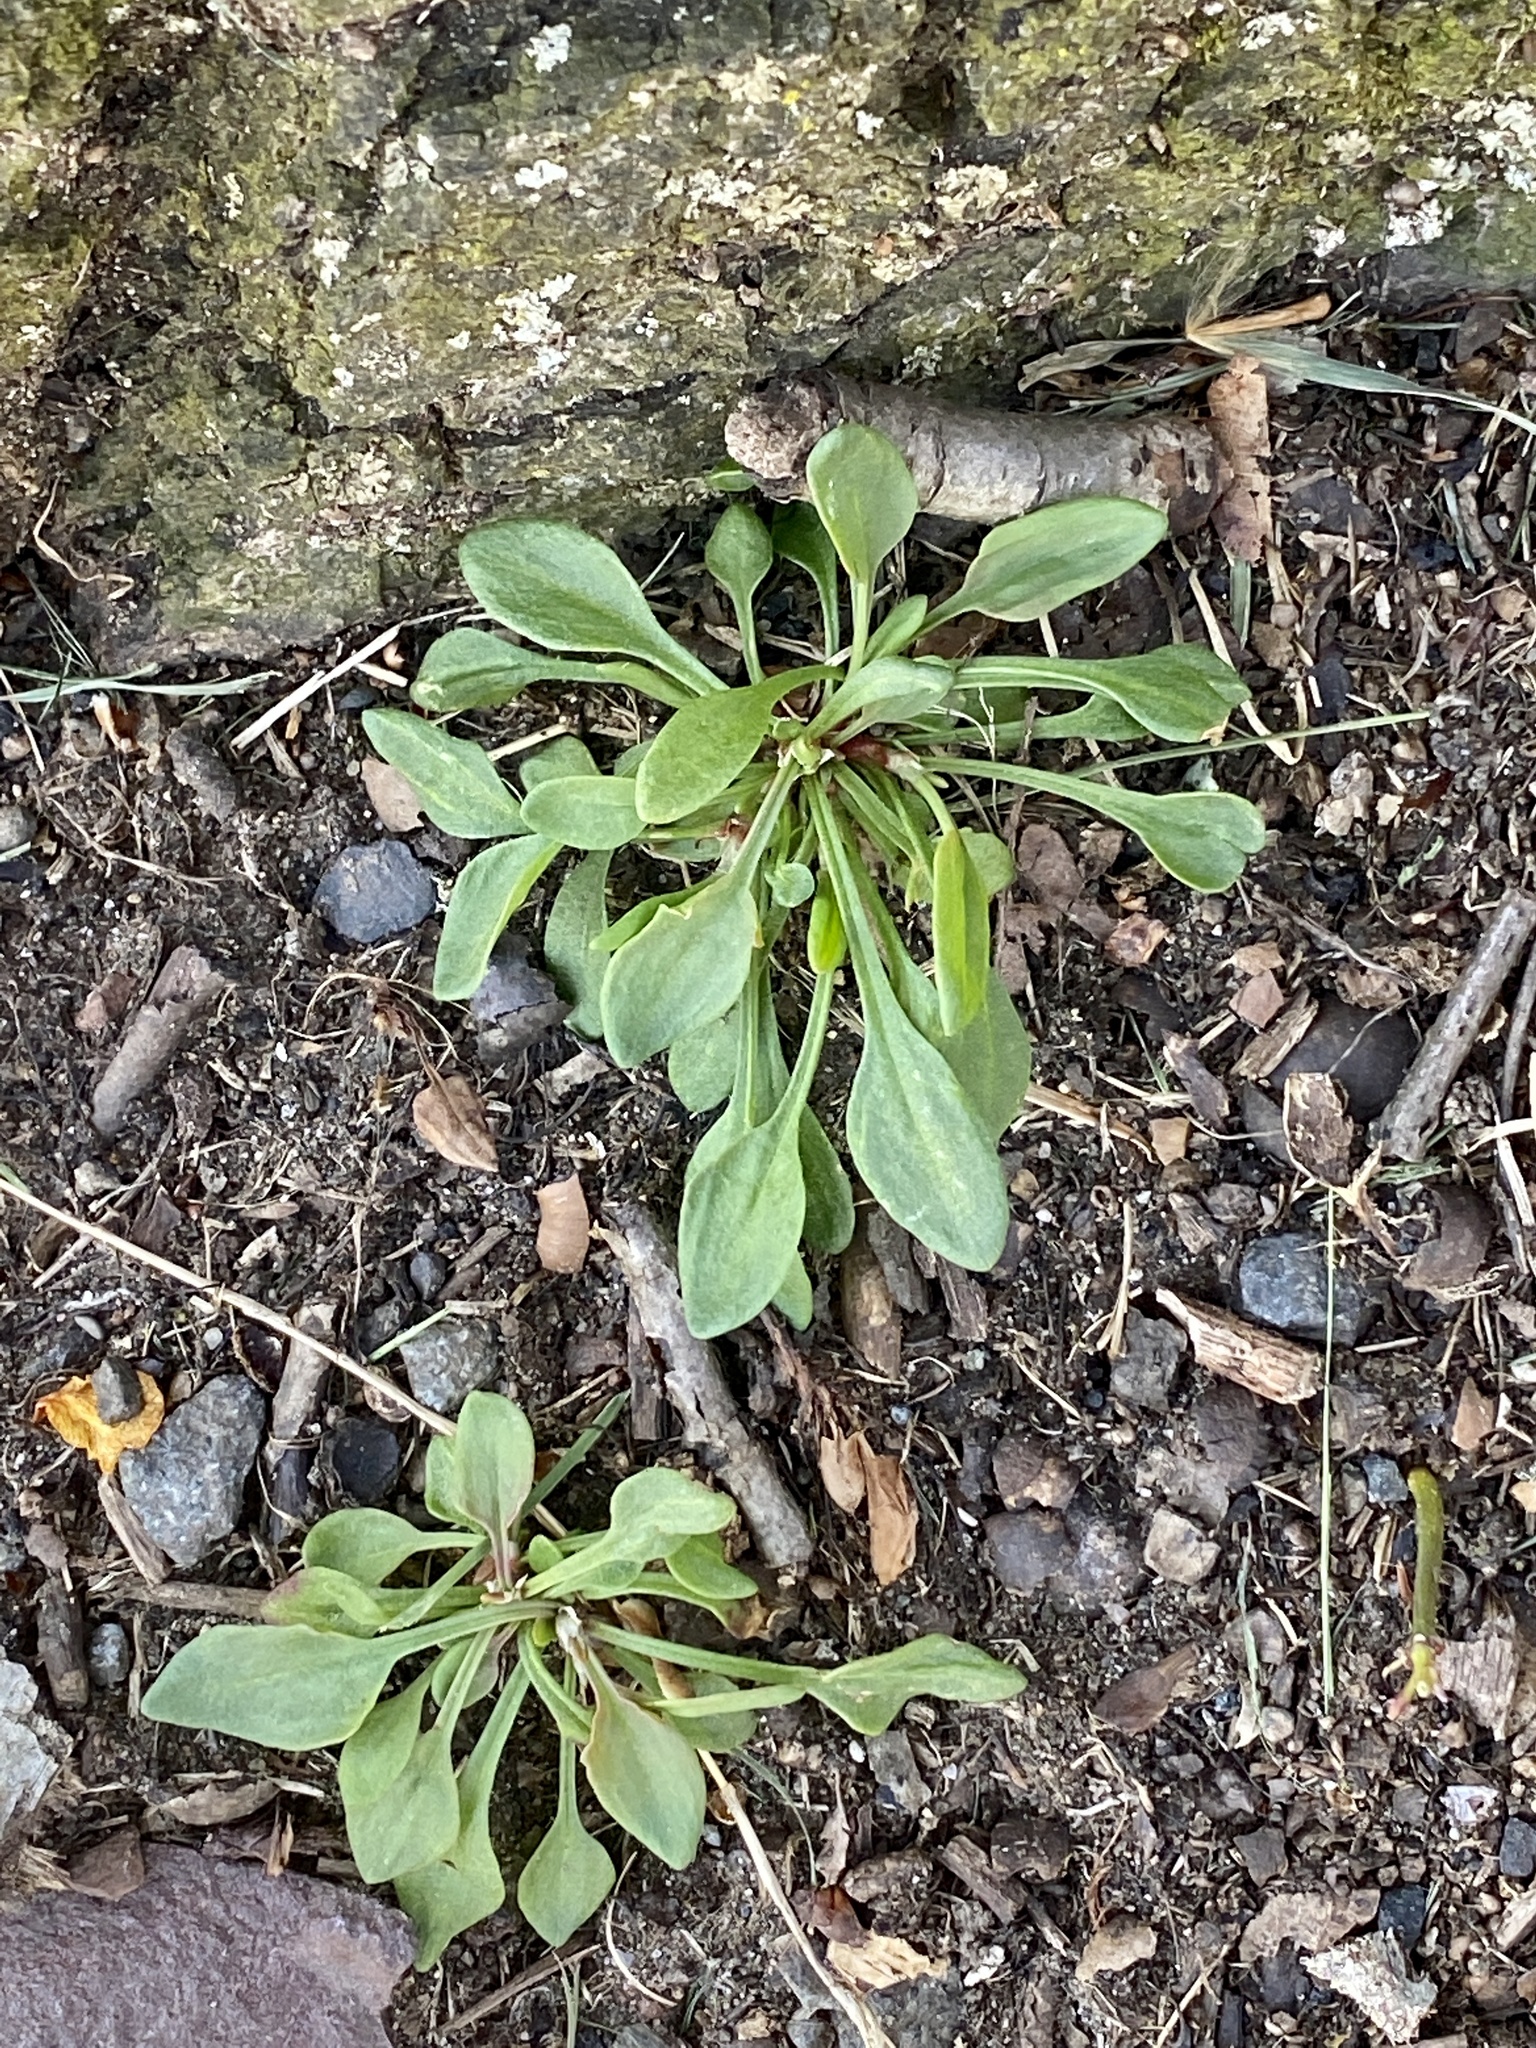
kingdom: Plantae
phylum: Tracheophyta
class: Magnoliopsida
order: Caryophyllales
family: Polygonaceae
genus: Rumex
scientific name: Rumex acetosella
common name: Common sheep sorrel
